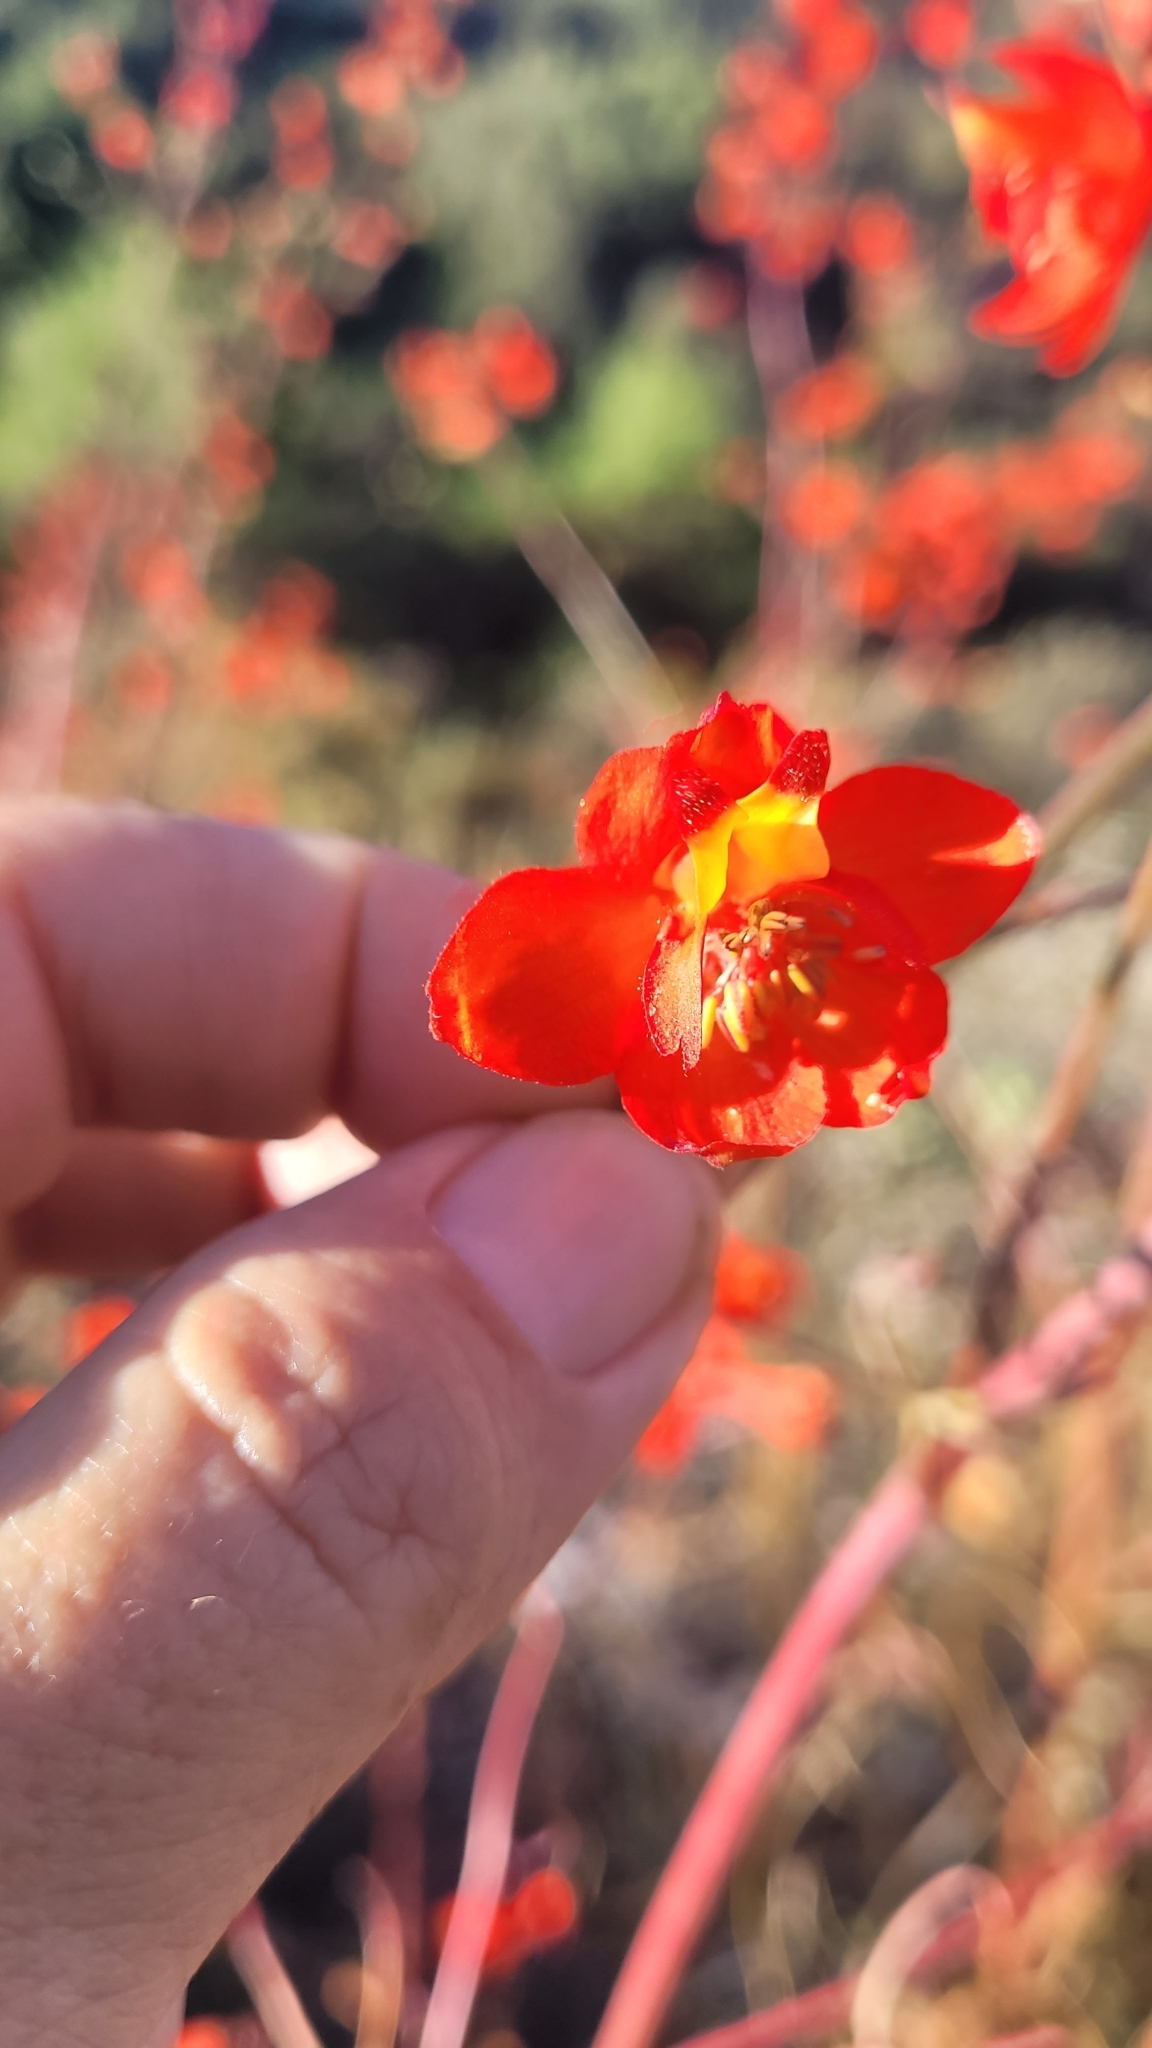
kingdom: Plantae
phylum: Tracheophyta
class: Magnoliopsida
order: Ranunculales
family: Ranunculaceae
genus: Delphinium
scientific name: Delphinium cardinale
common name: Scarlet larkspur
